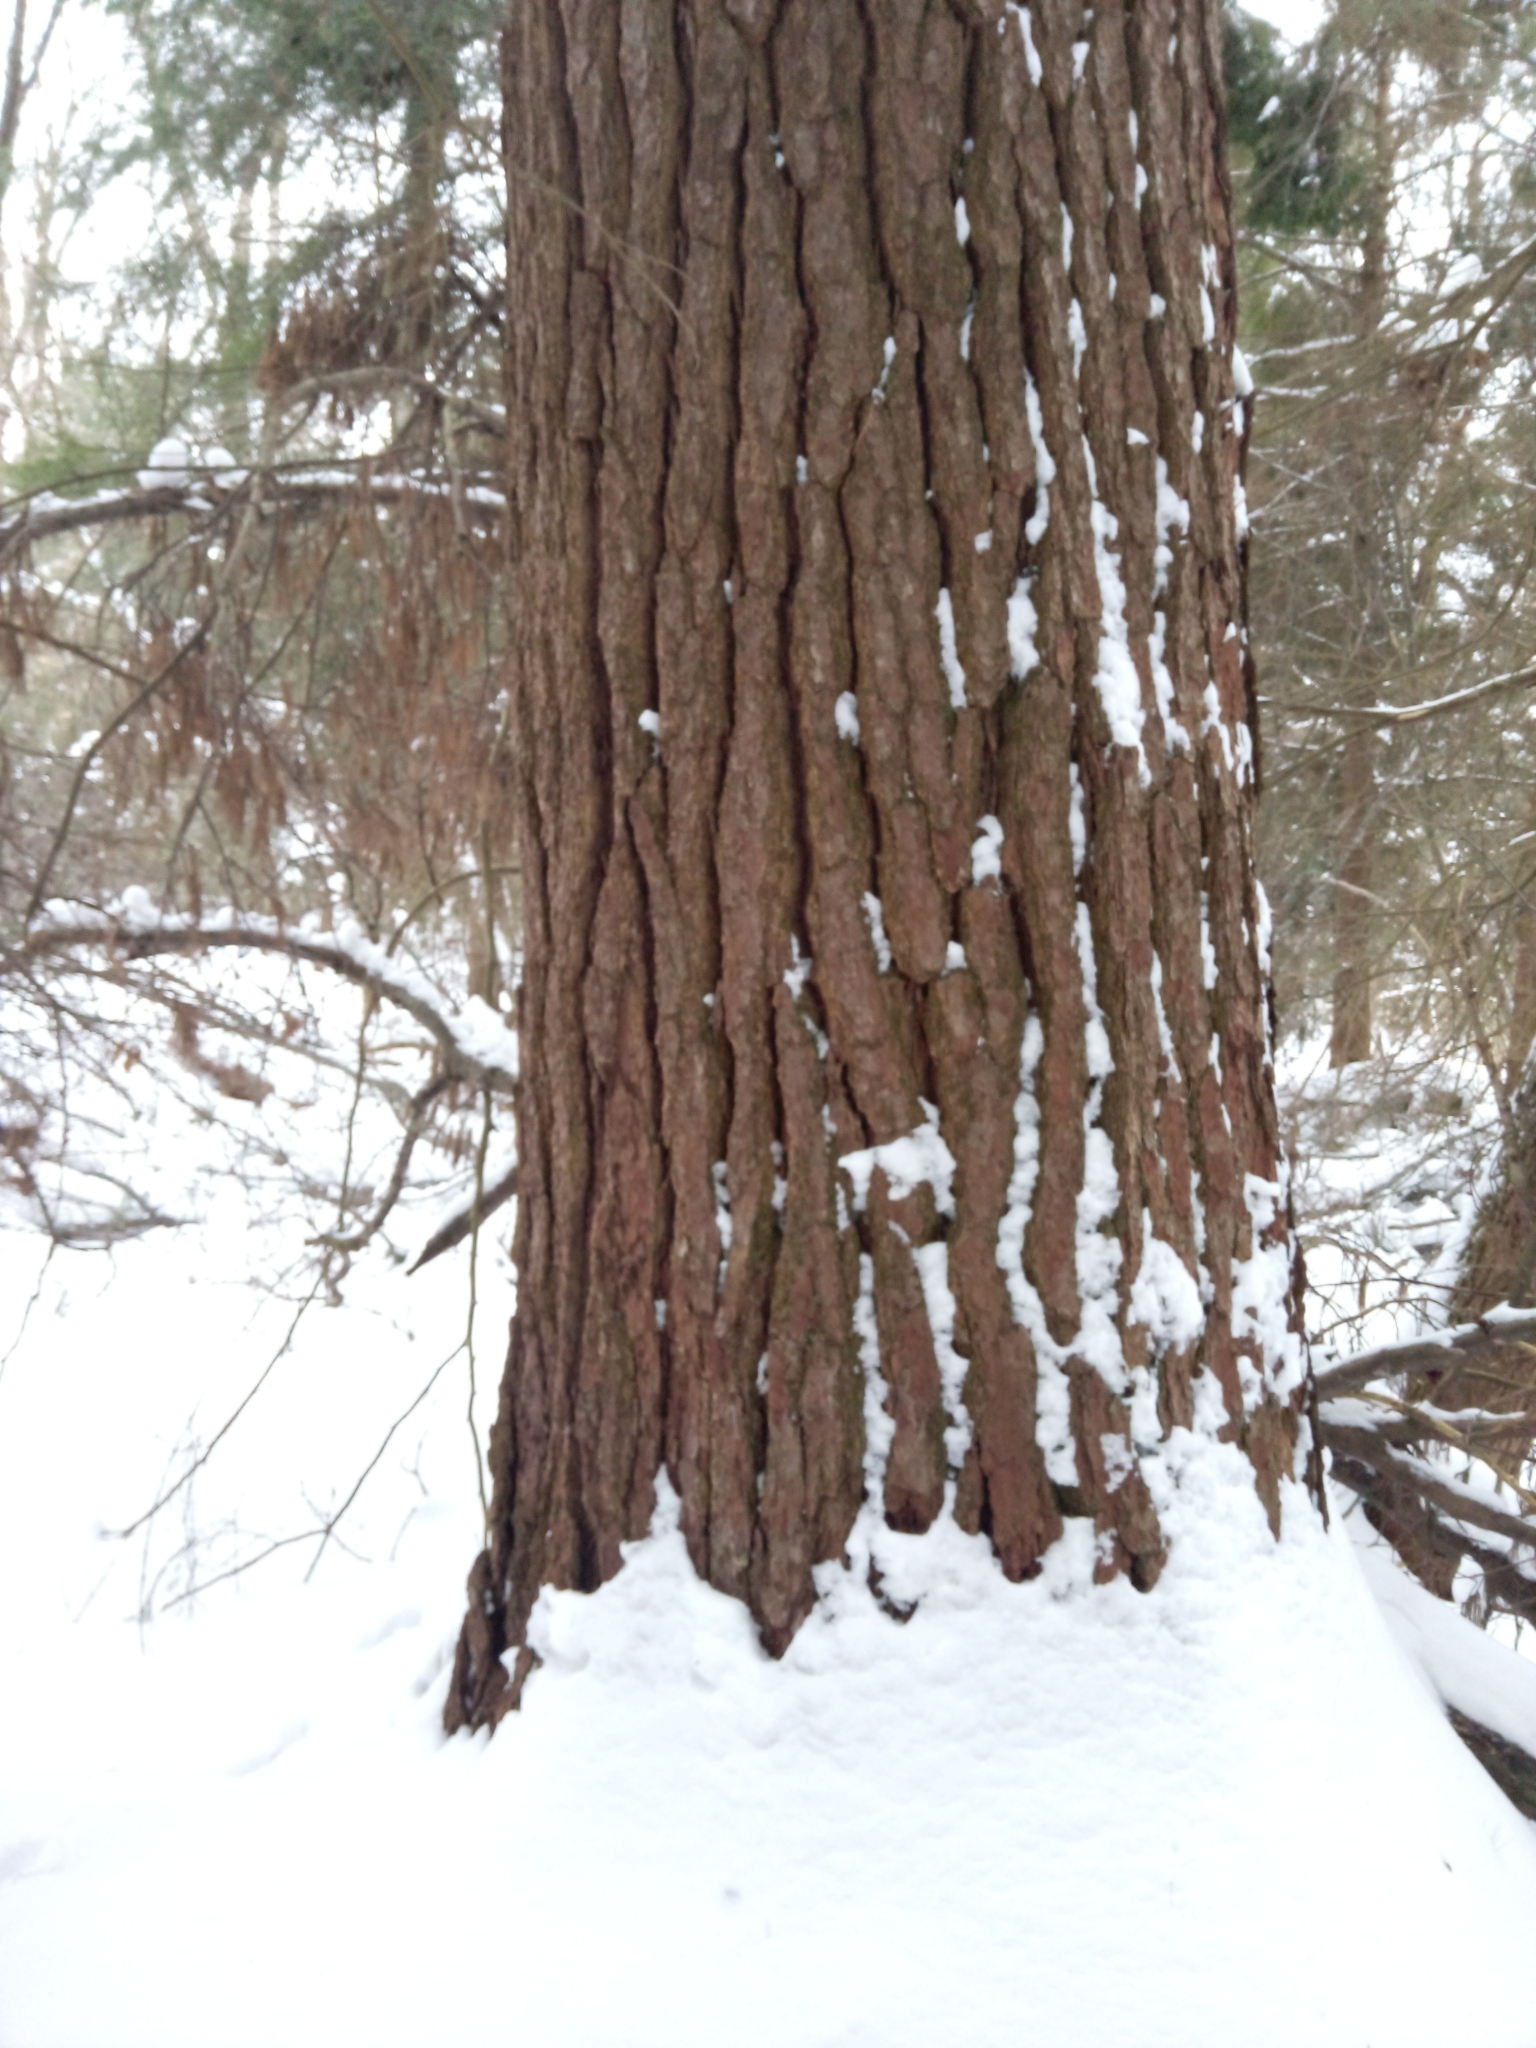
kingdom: Plantae
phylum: Tracheophyta
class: Pinopsida
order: Pinales
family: Pinaceae
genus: Pinus
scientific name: Pinus strobus
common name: Weymouth pine
